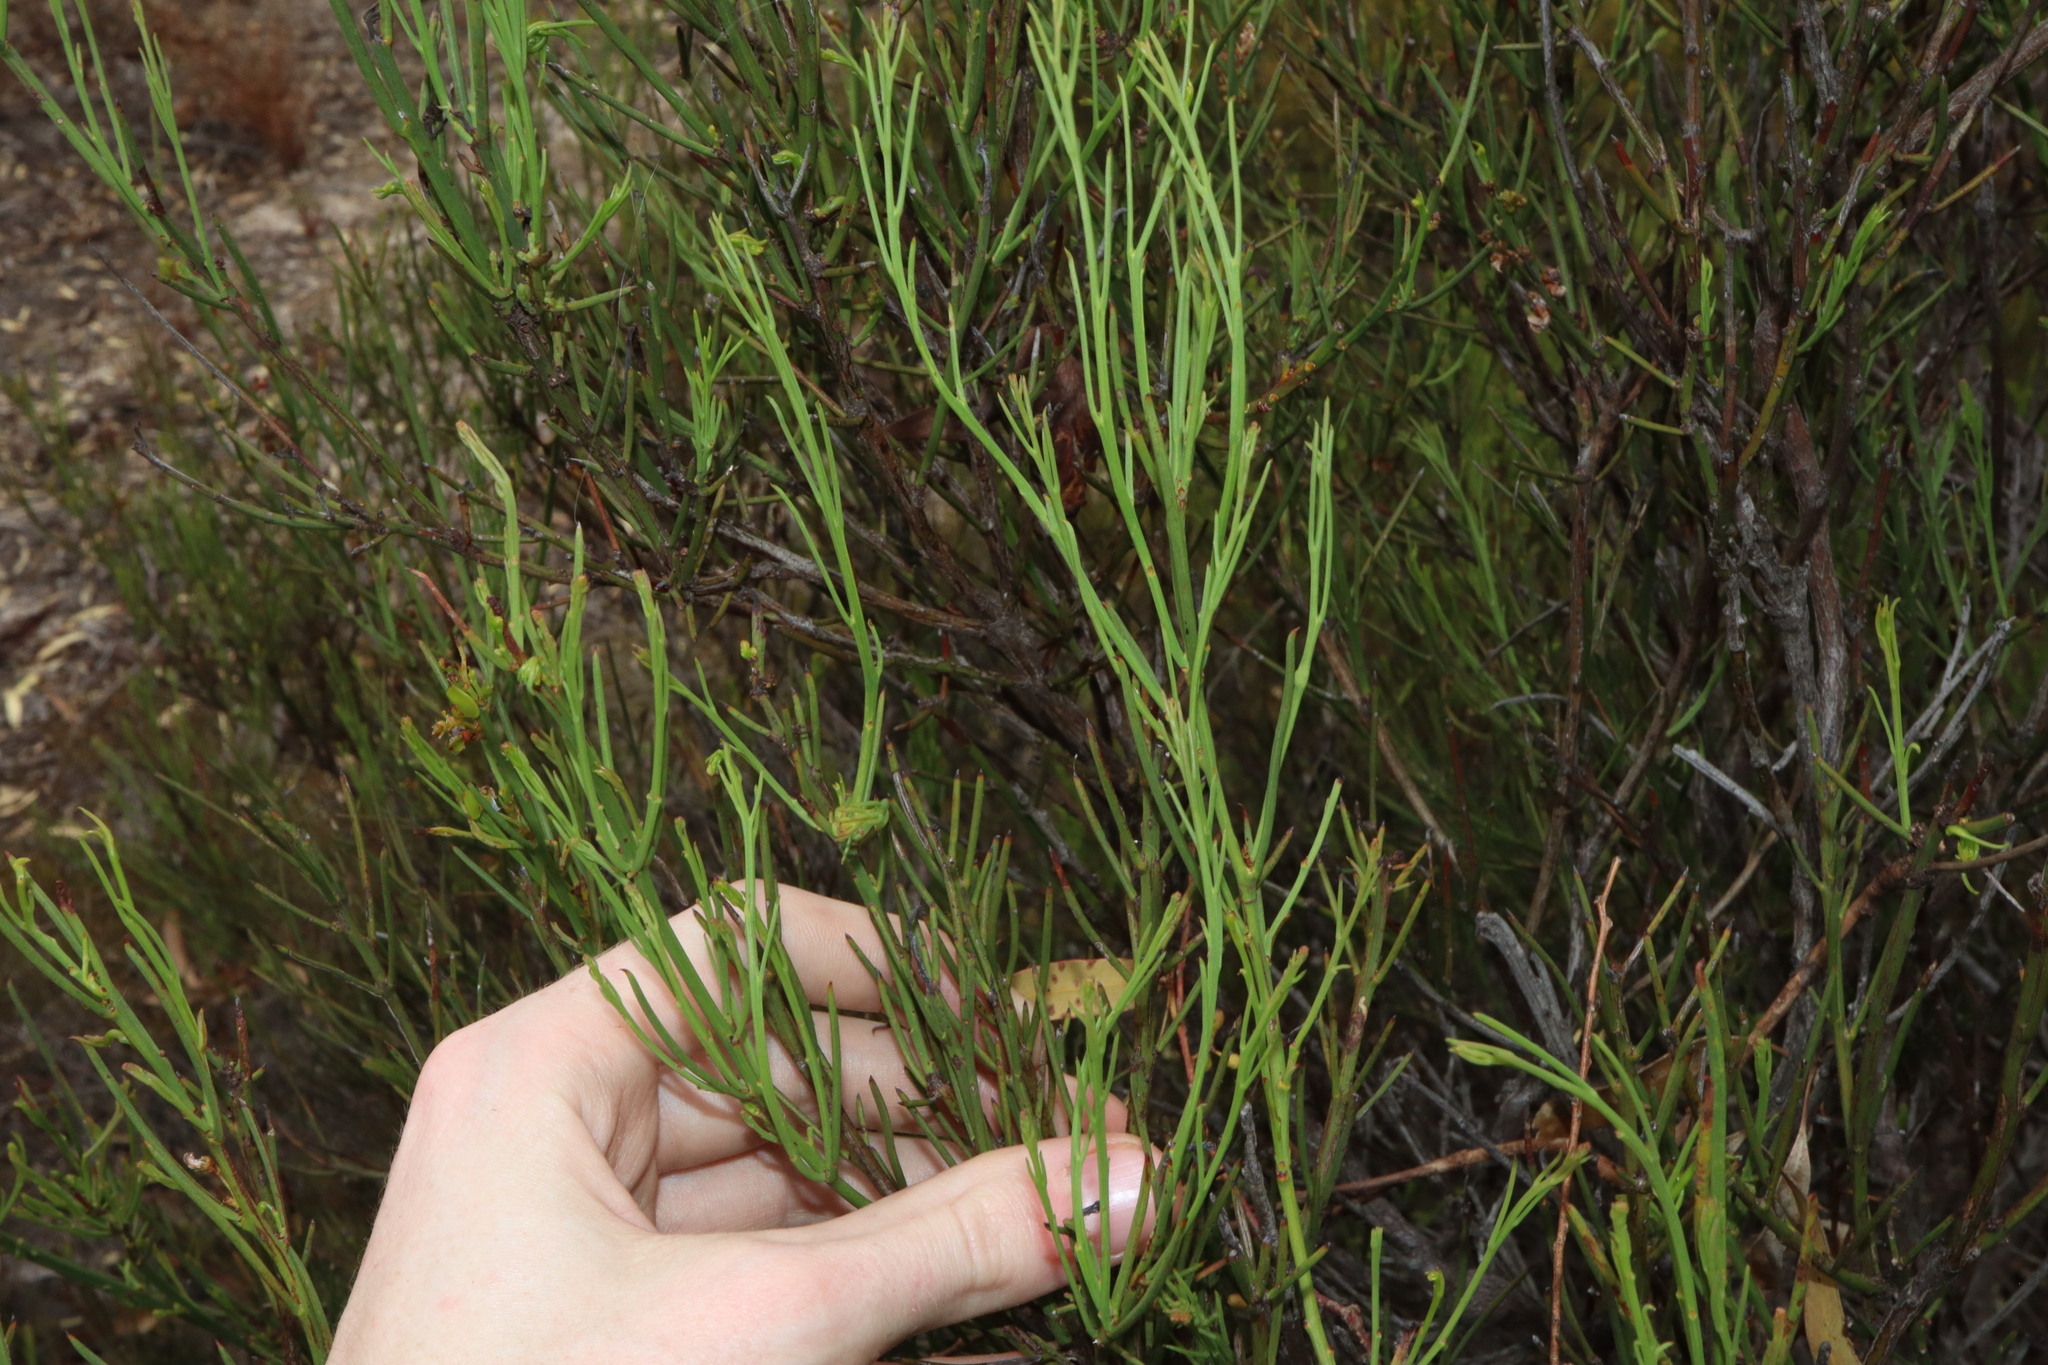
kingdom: Plantae
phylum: Tracheophyta
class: Magnoliopsida
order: Fabales
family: Fabaceae
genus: Daviesia
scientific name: Daviesia nematophylla
